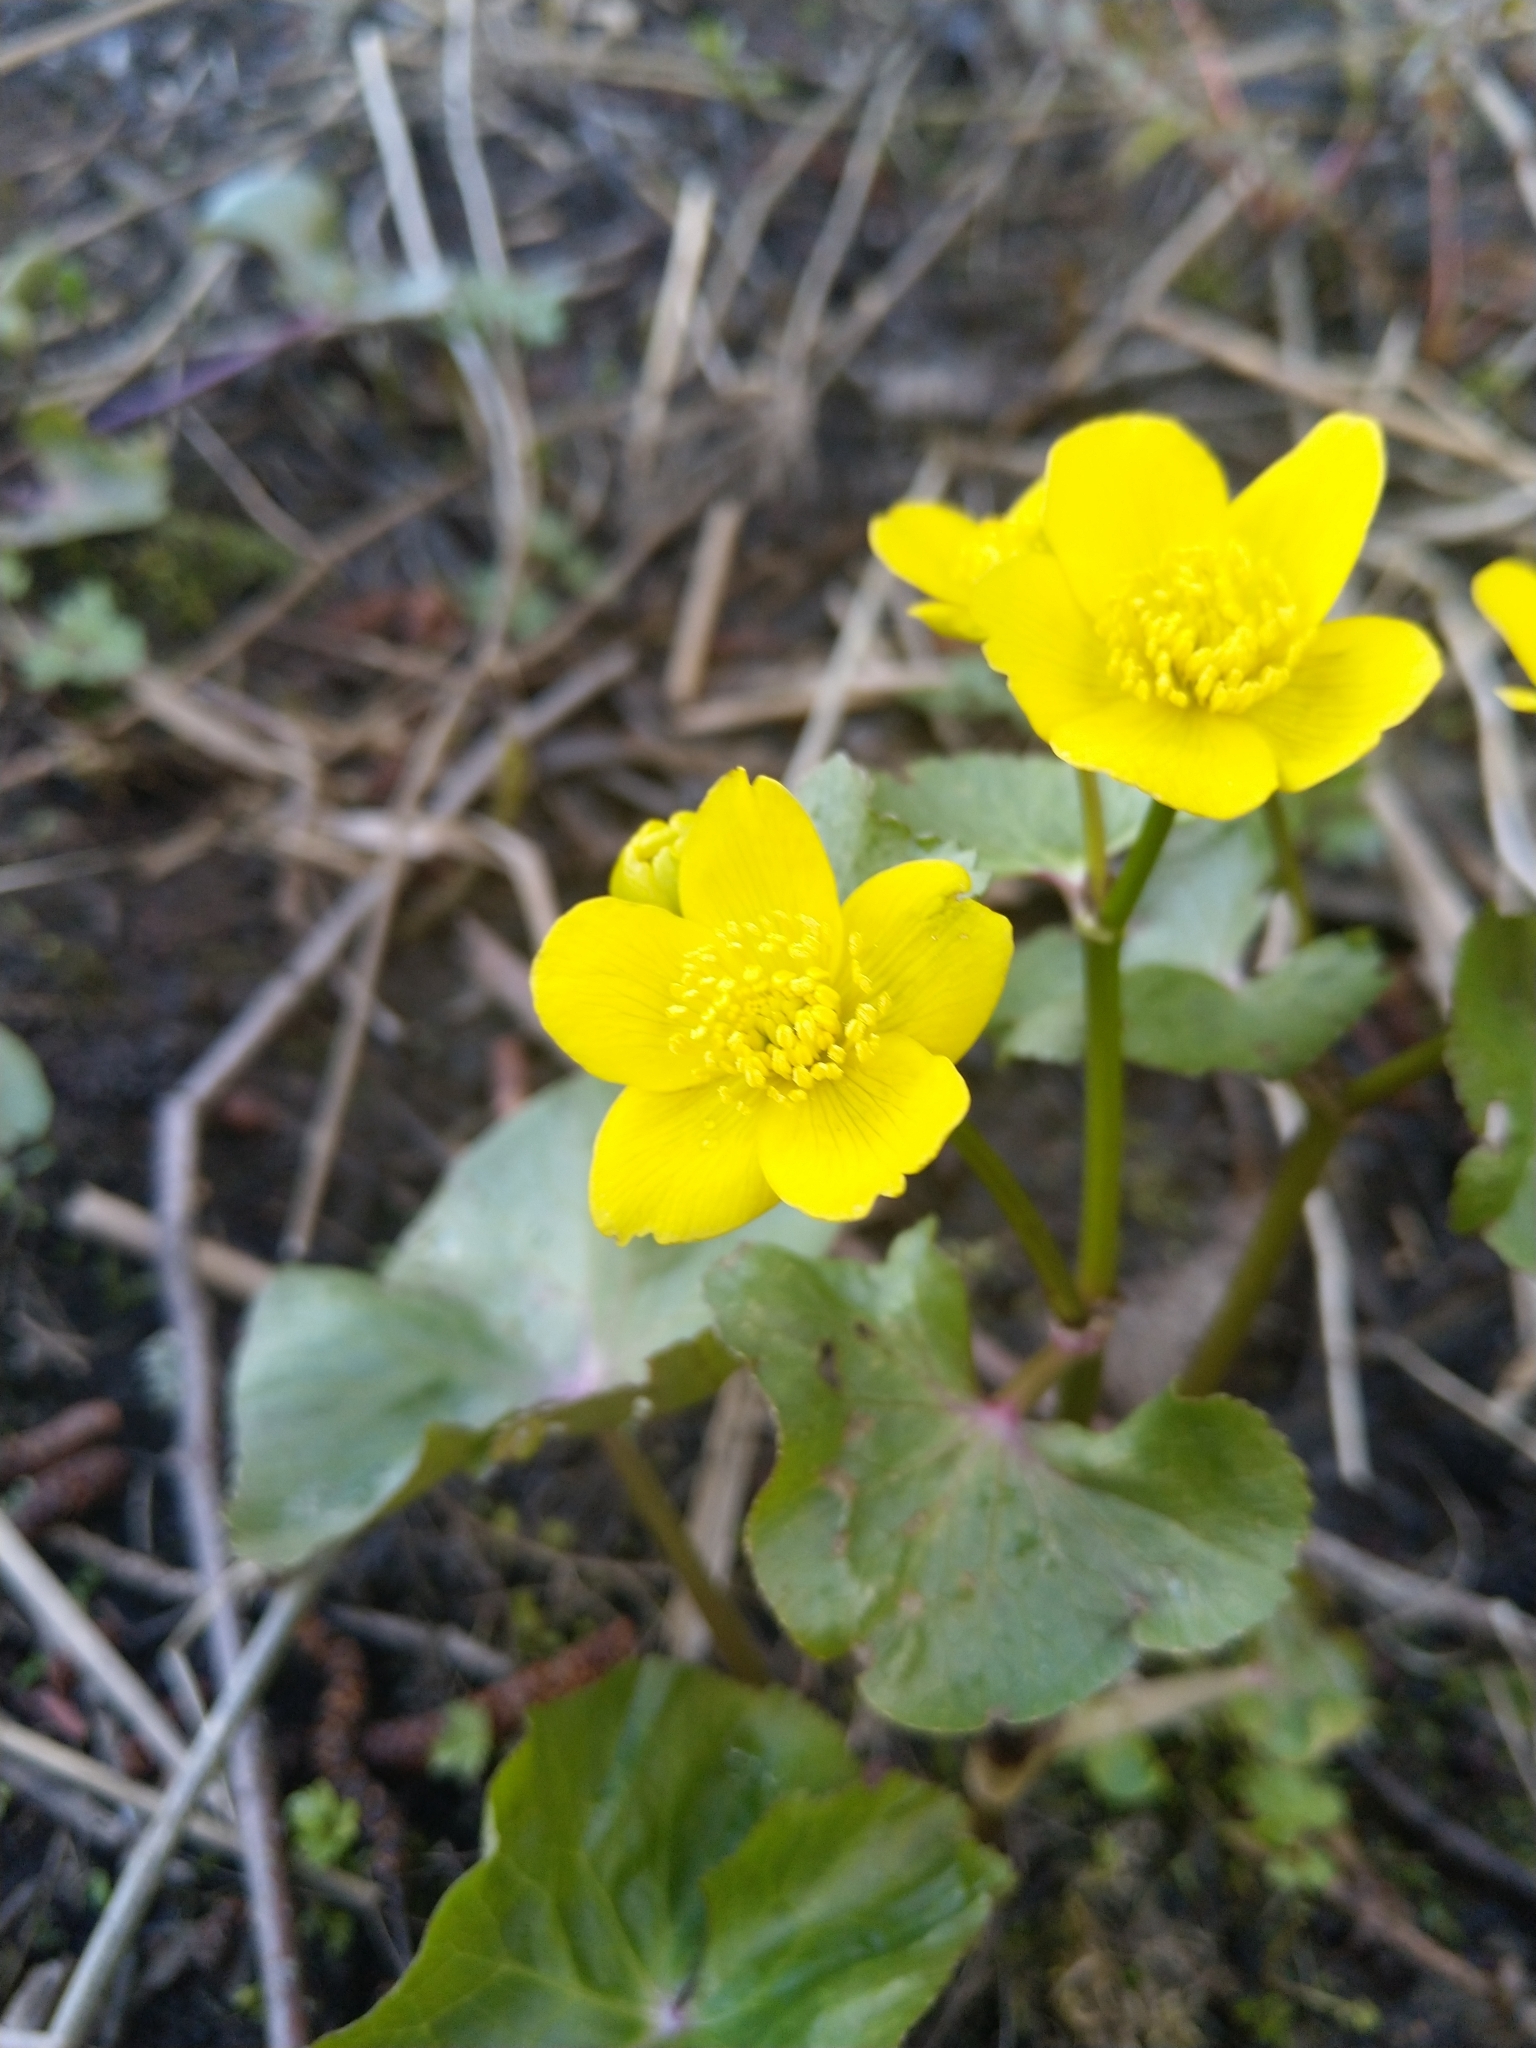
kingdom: Plantae
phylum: Tracheophyta
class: Magnoliopsida
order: Ranunculales
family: Ranunculaceae
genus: Caltha
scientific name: Caltha palustris
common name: Marsh marigold
